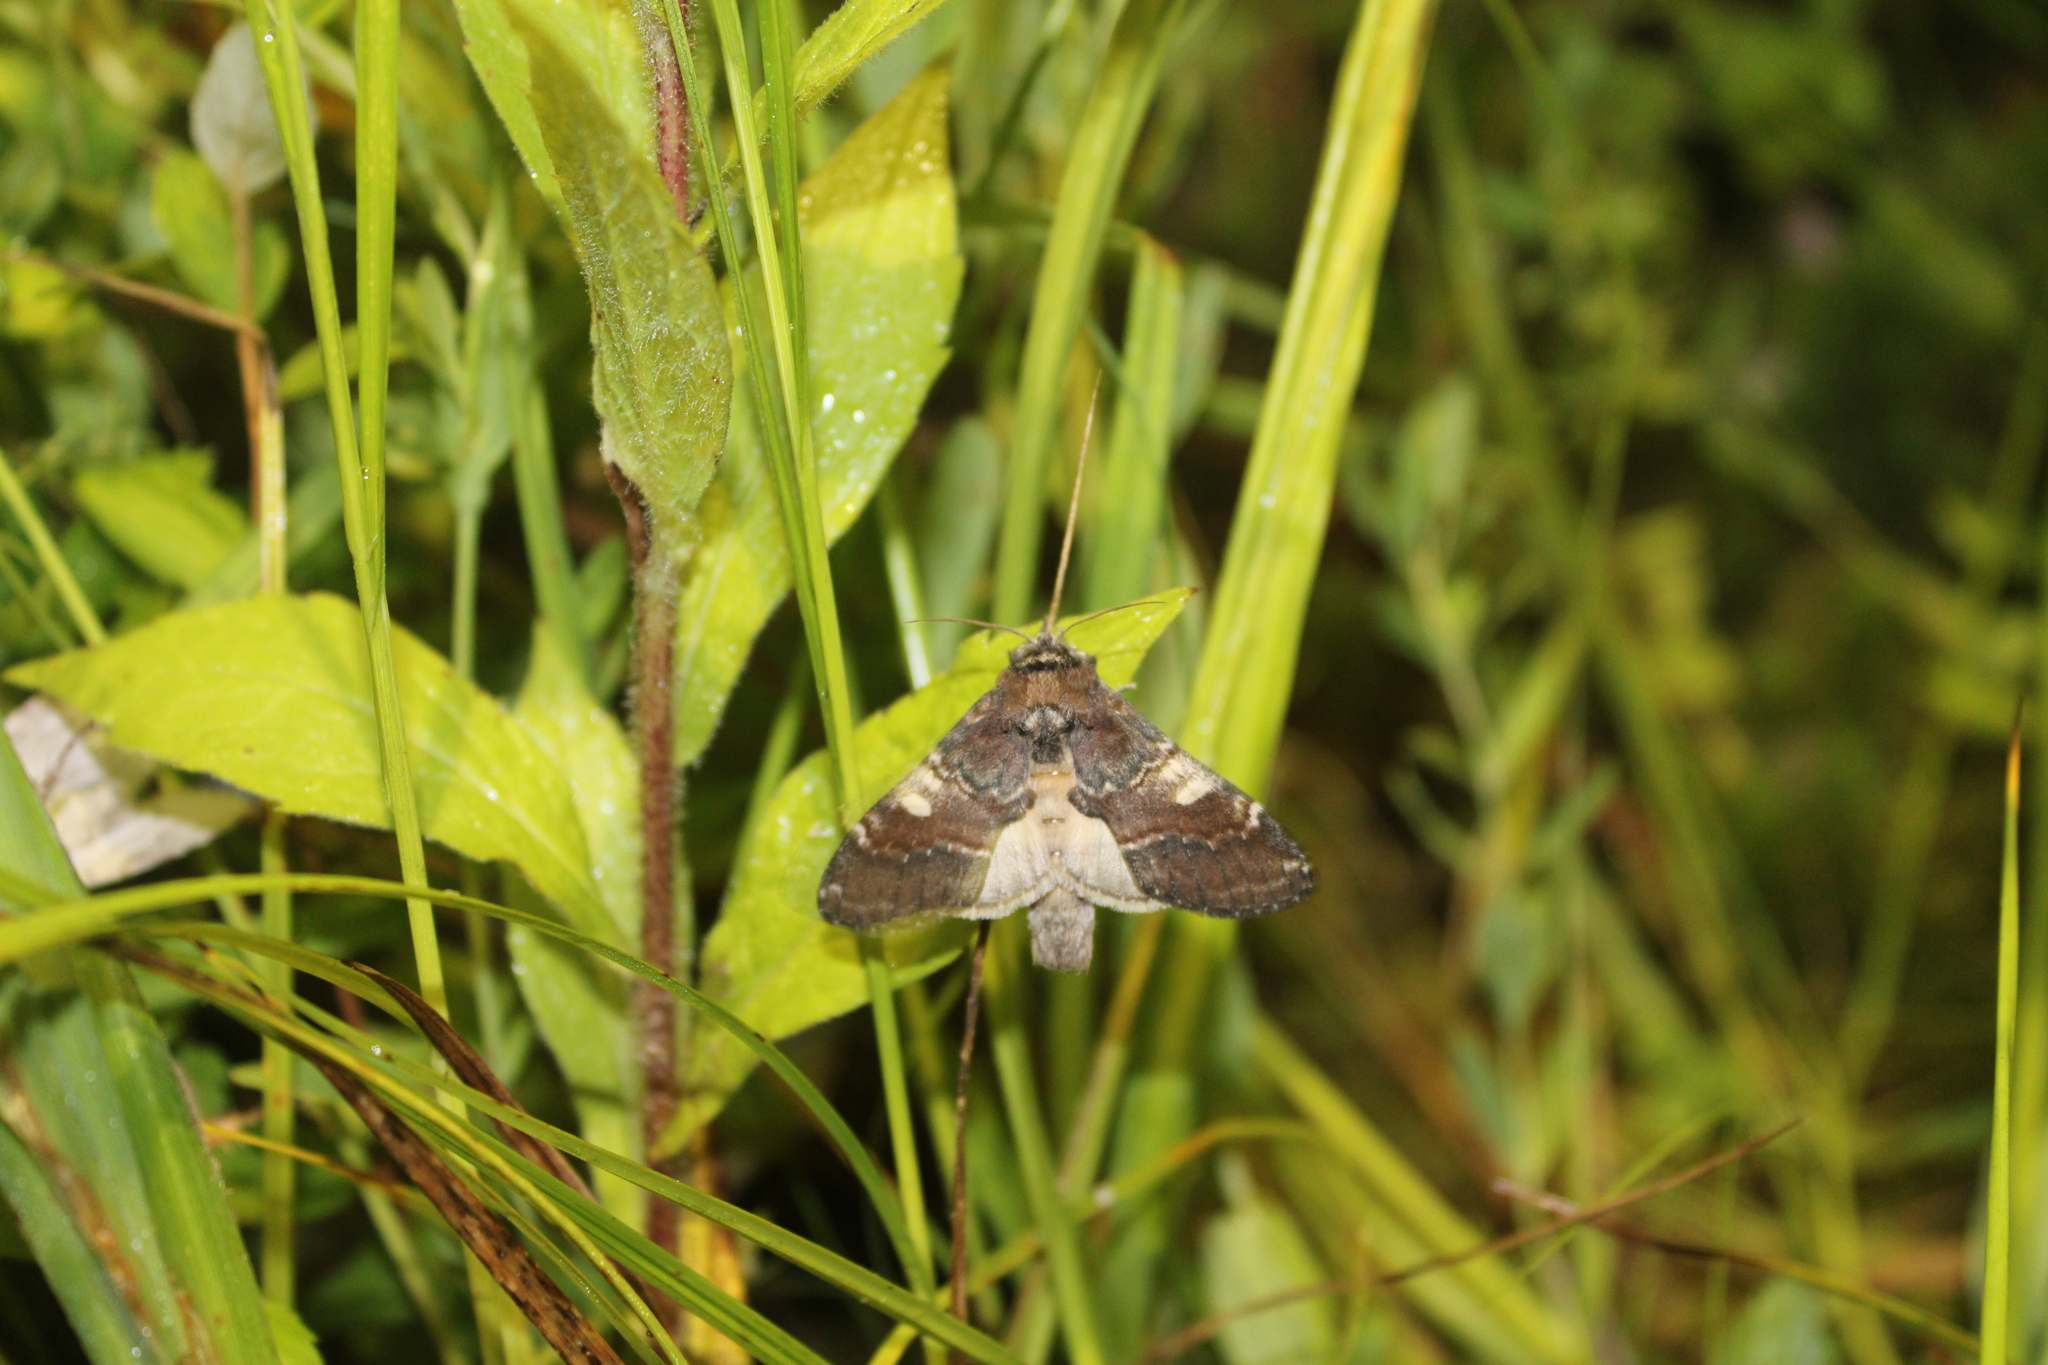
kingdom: Animalia
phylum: Arthropoda
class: Insecta
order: Lepidoptera
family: Notodontidae
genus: Peridea
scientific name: Peridea ferruginea
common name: Chocolate prominent
